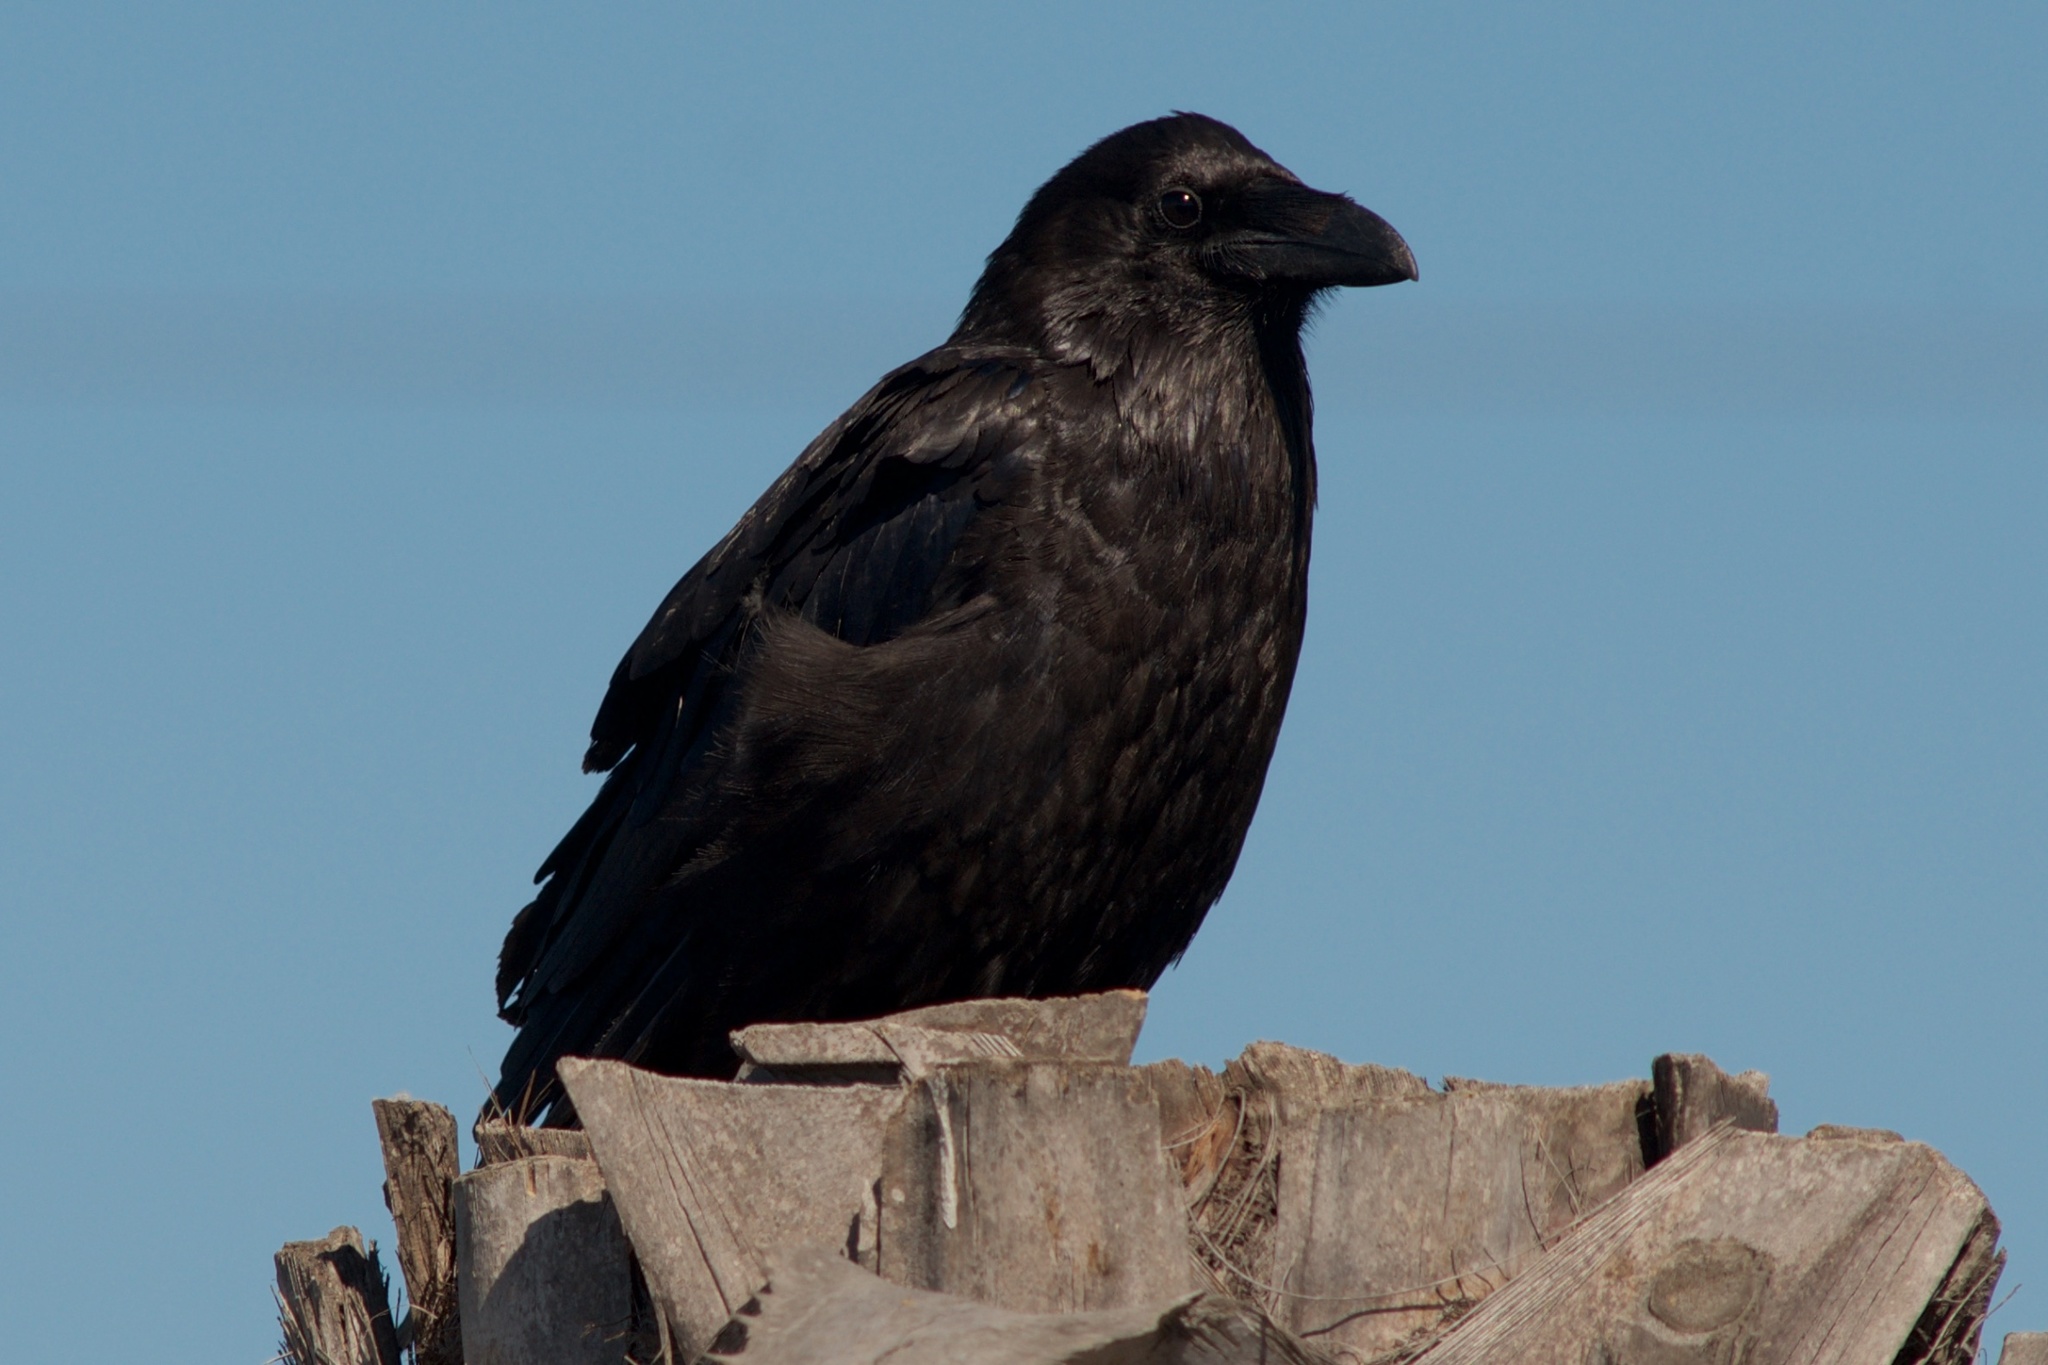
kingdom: Animalia
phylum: Chordata
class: Aves
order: Passeriformes
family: Corvidae
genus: Corvus
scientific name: Corvus corax
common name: Common raven
